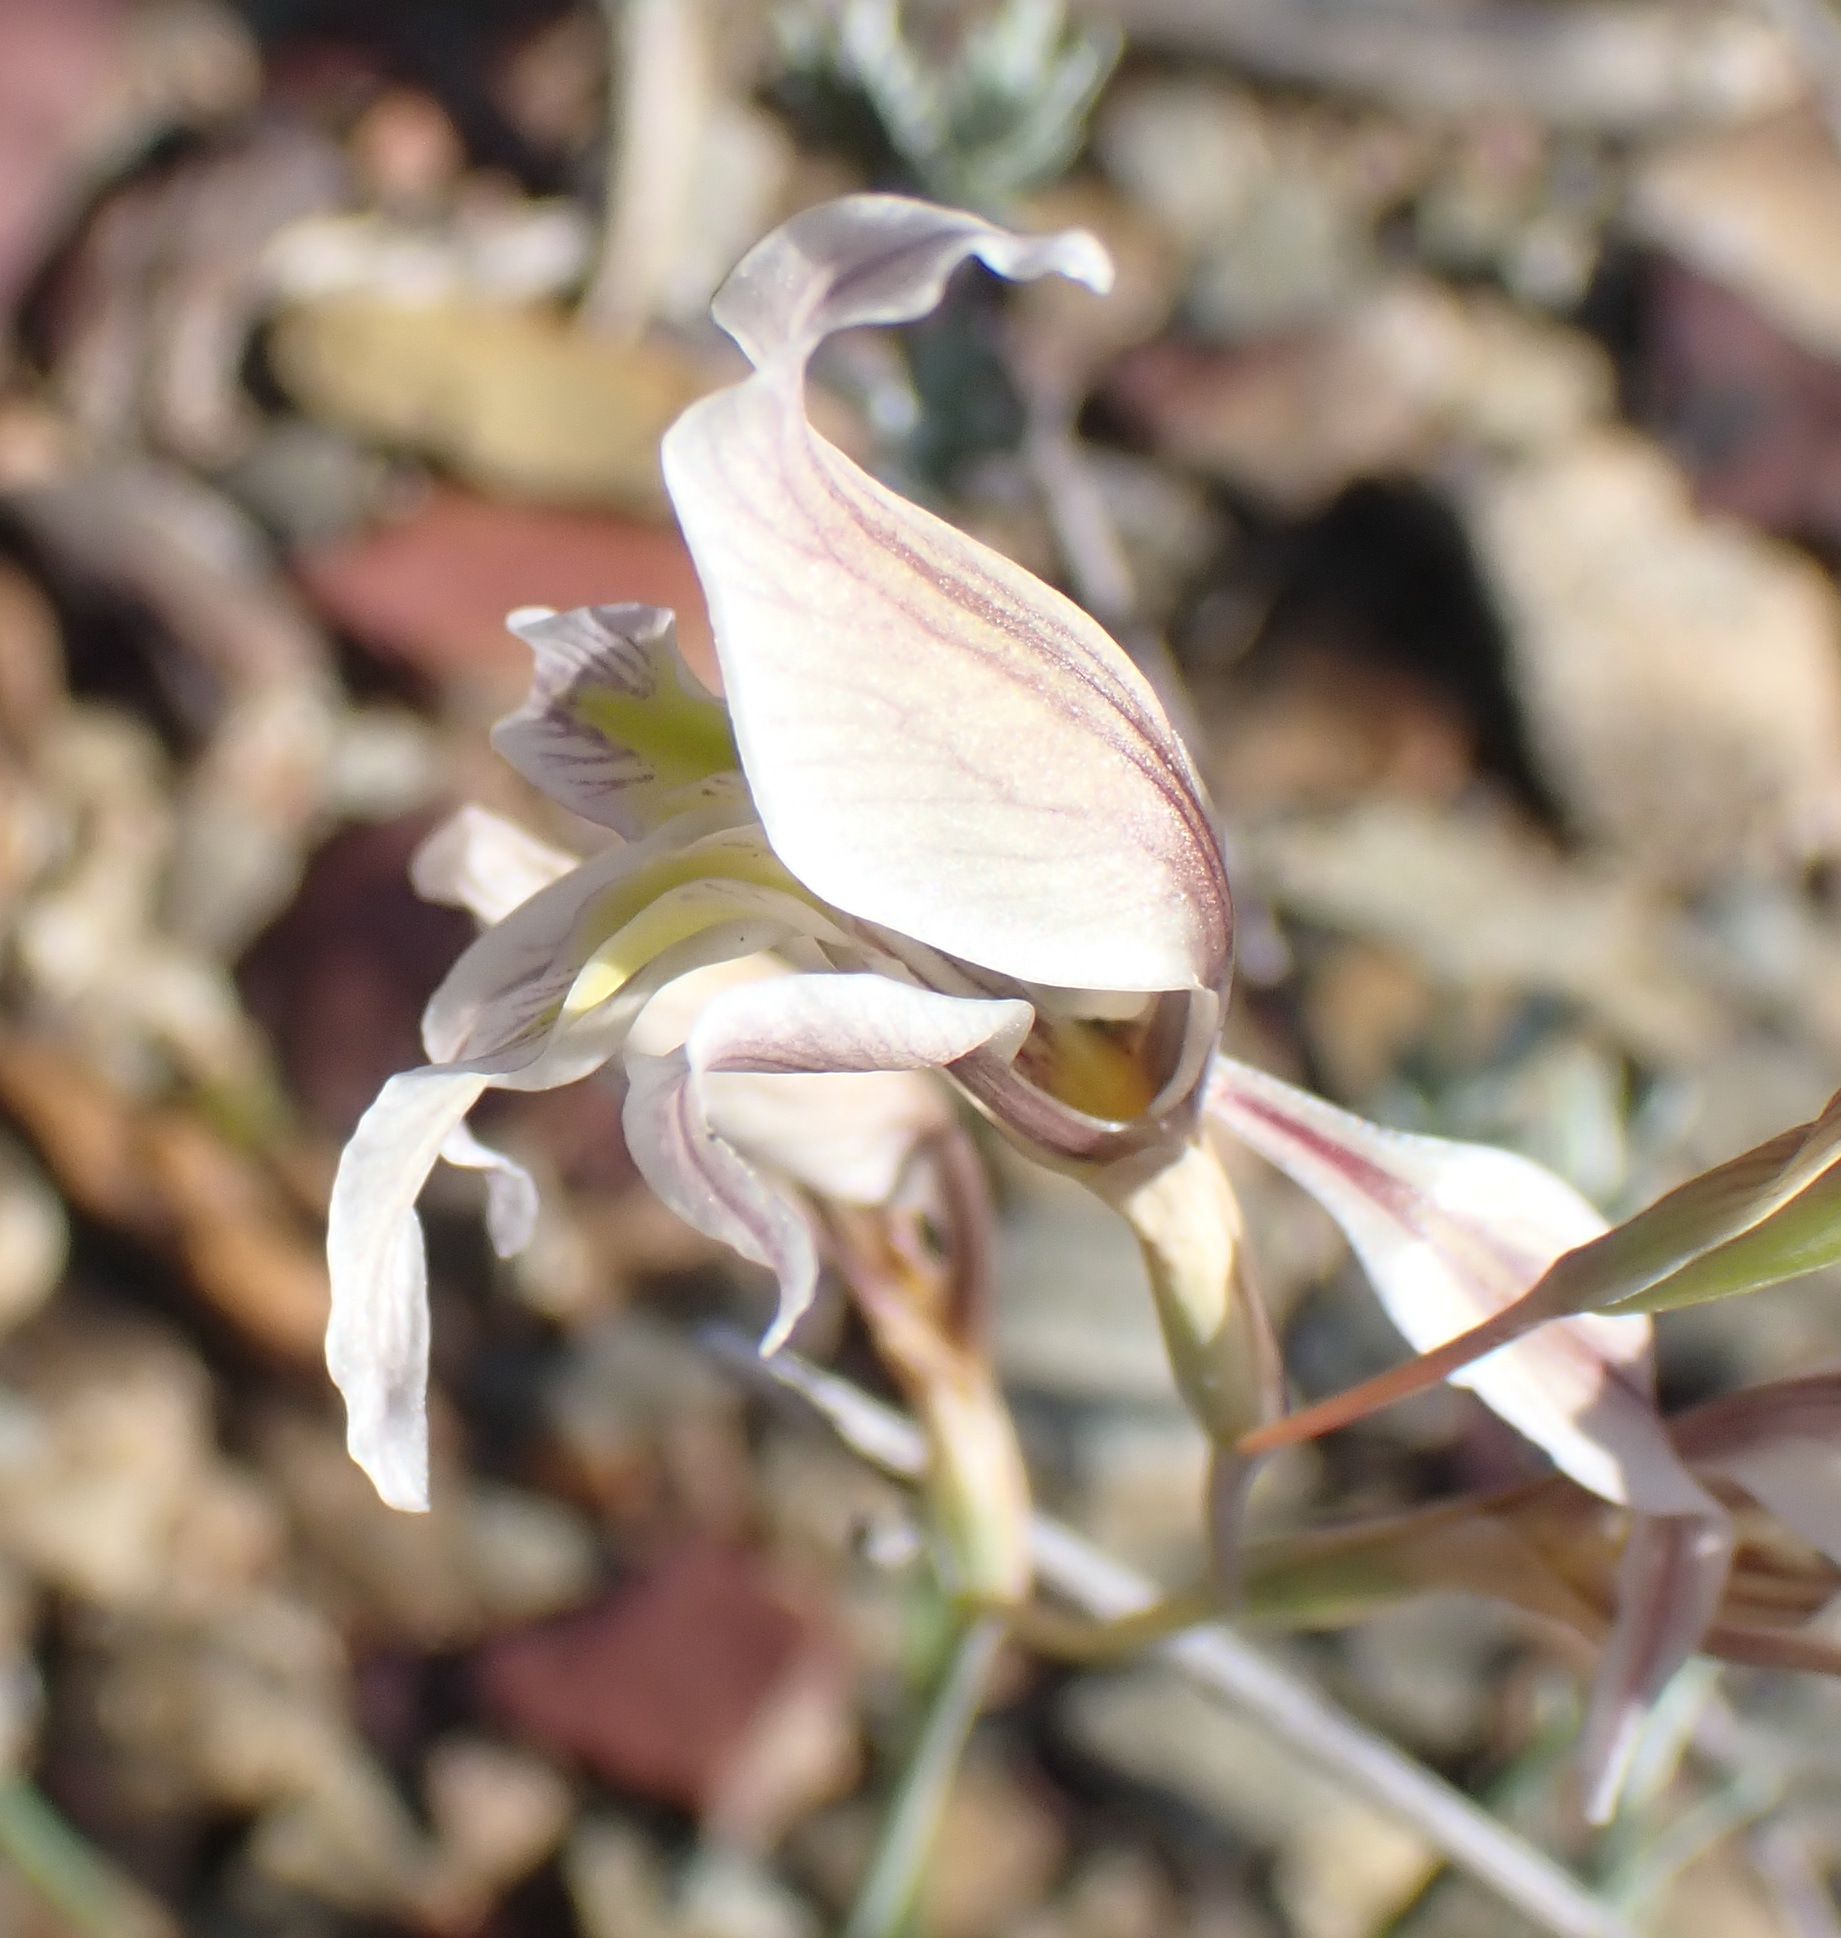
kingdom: Plantae
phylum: Tracheophyta
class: Liliopsida
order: Asparagales
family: Iridaceae
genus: Gladiolus
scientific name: Gladiolus permeabilis
